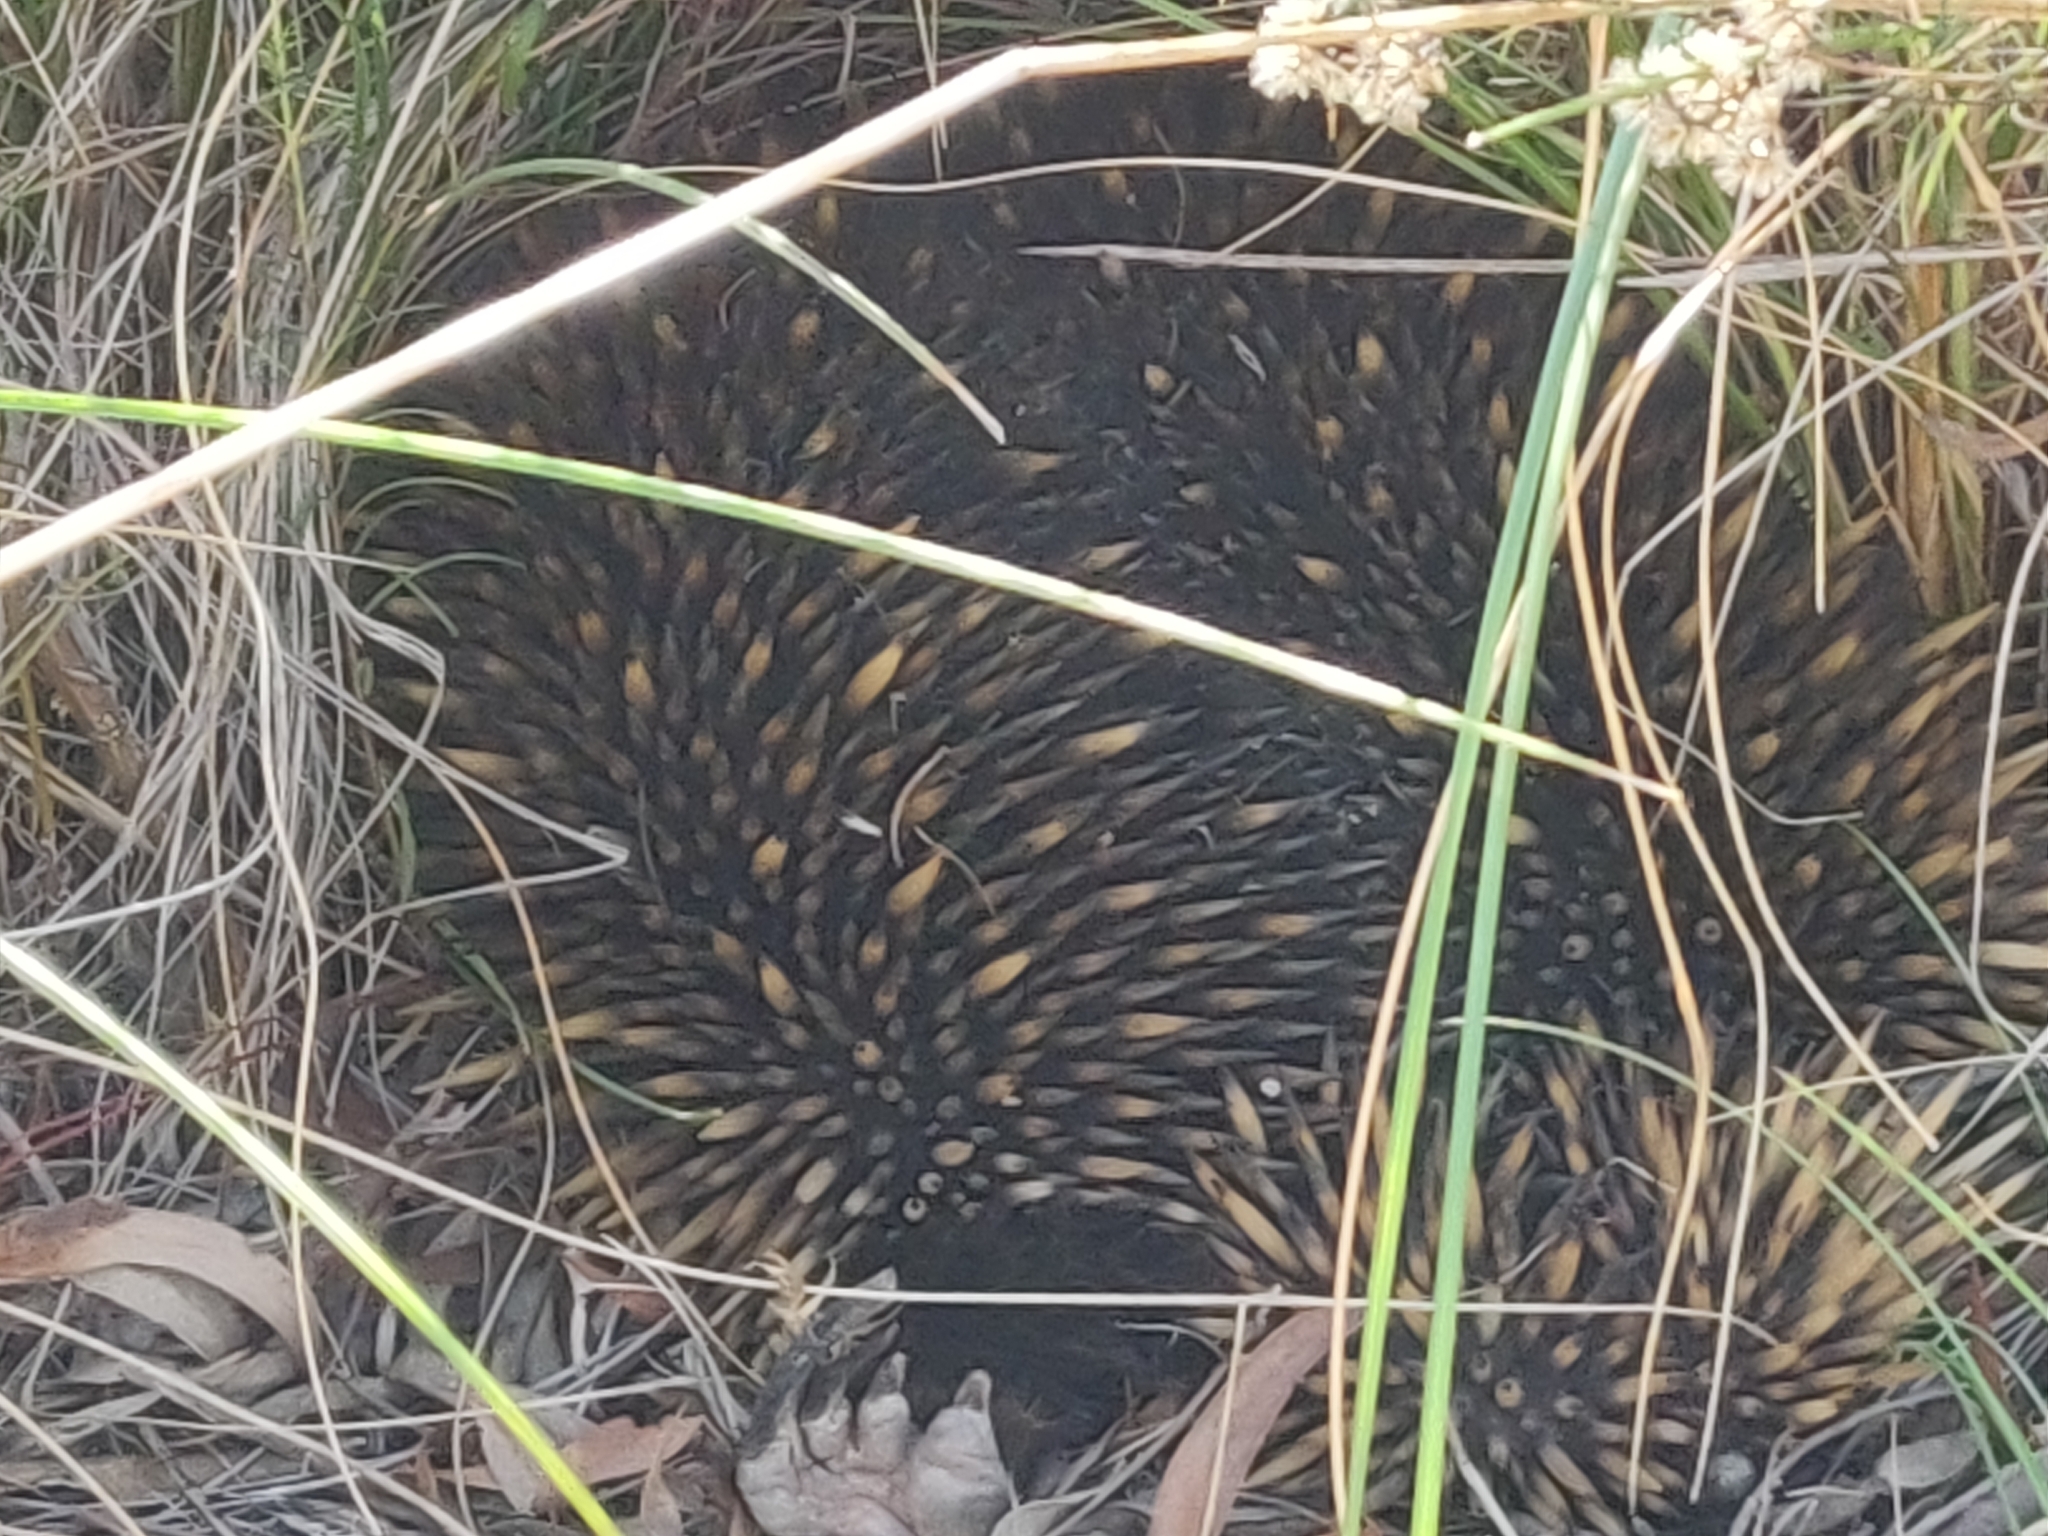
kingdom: Animalia
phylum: Chordata
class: Mammalia
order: Monotremata
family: Tachyglossidae
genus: Tachyglossus
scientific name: Tachyglossus aculeatus
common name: Short-beaked echidna
